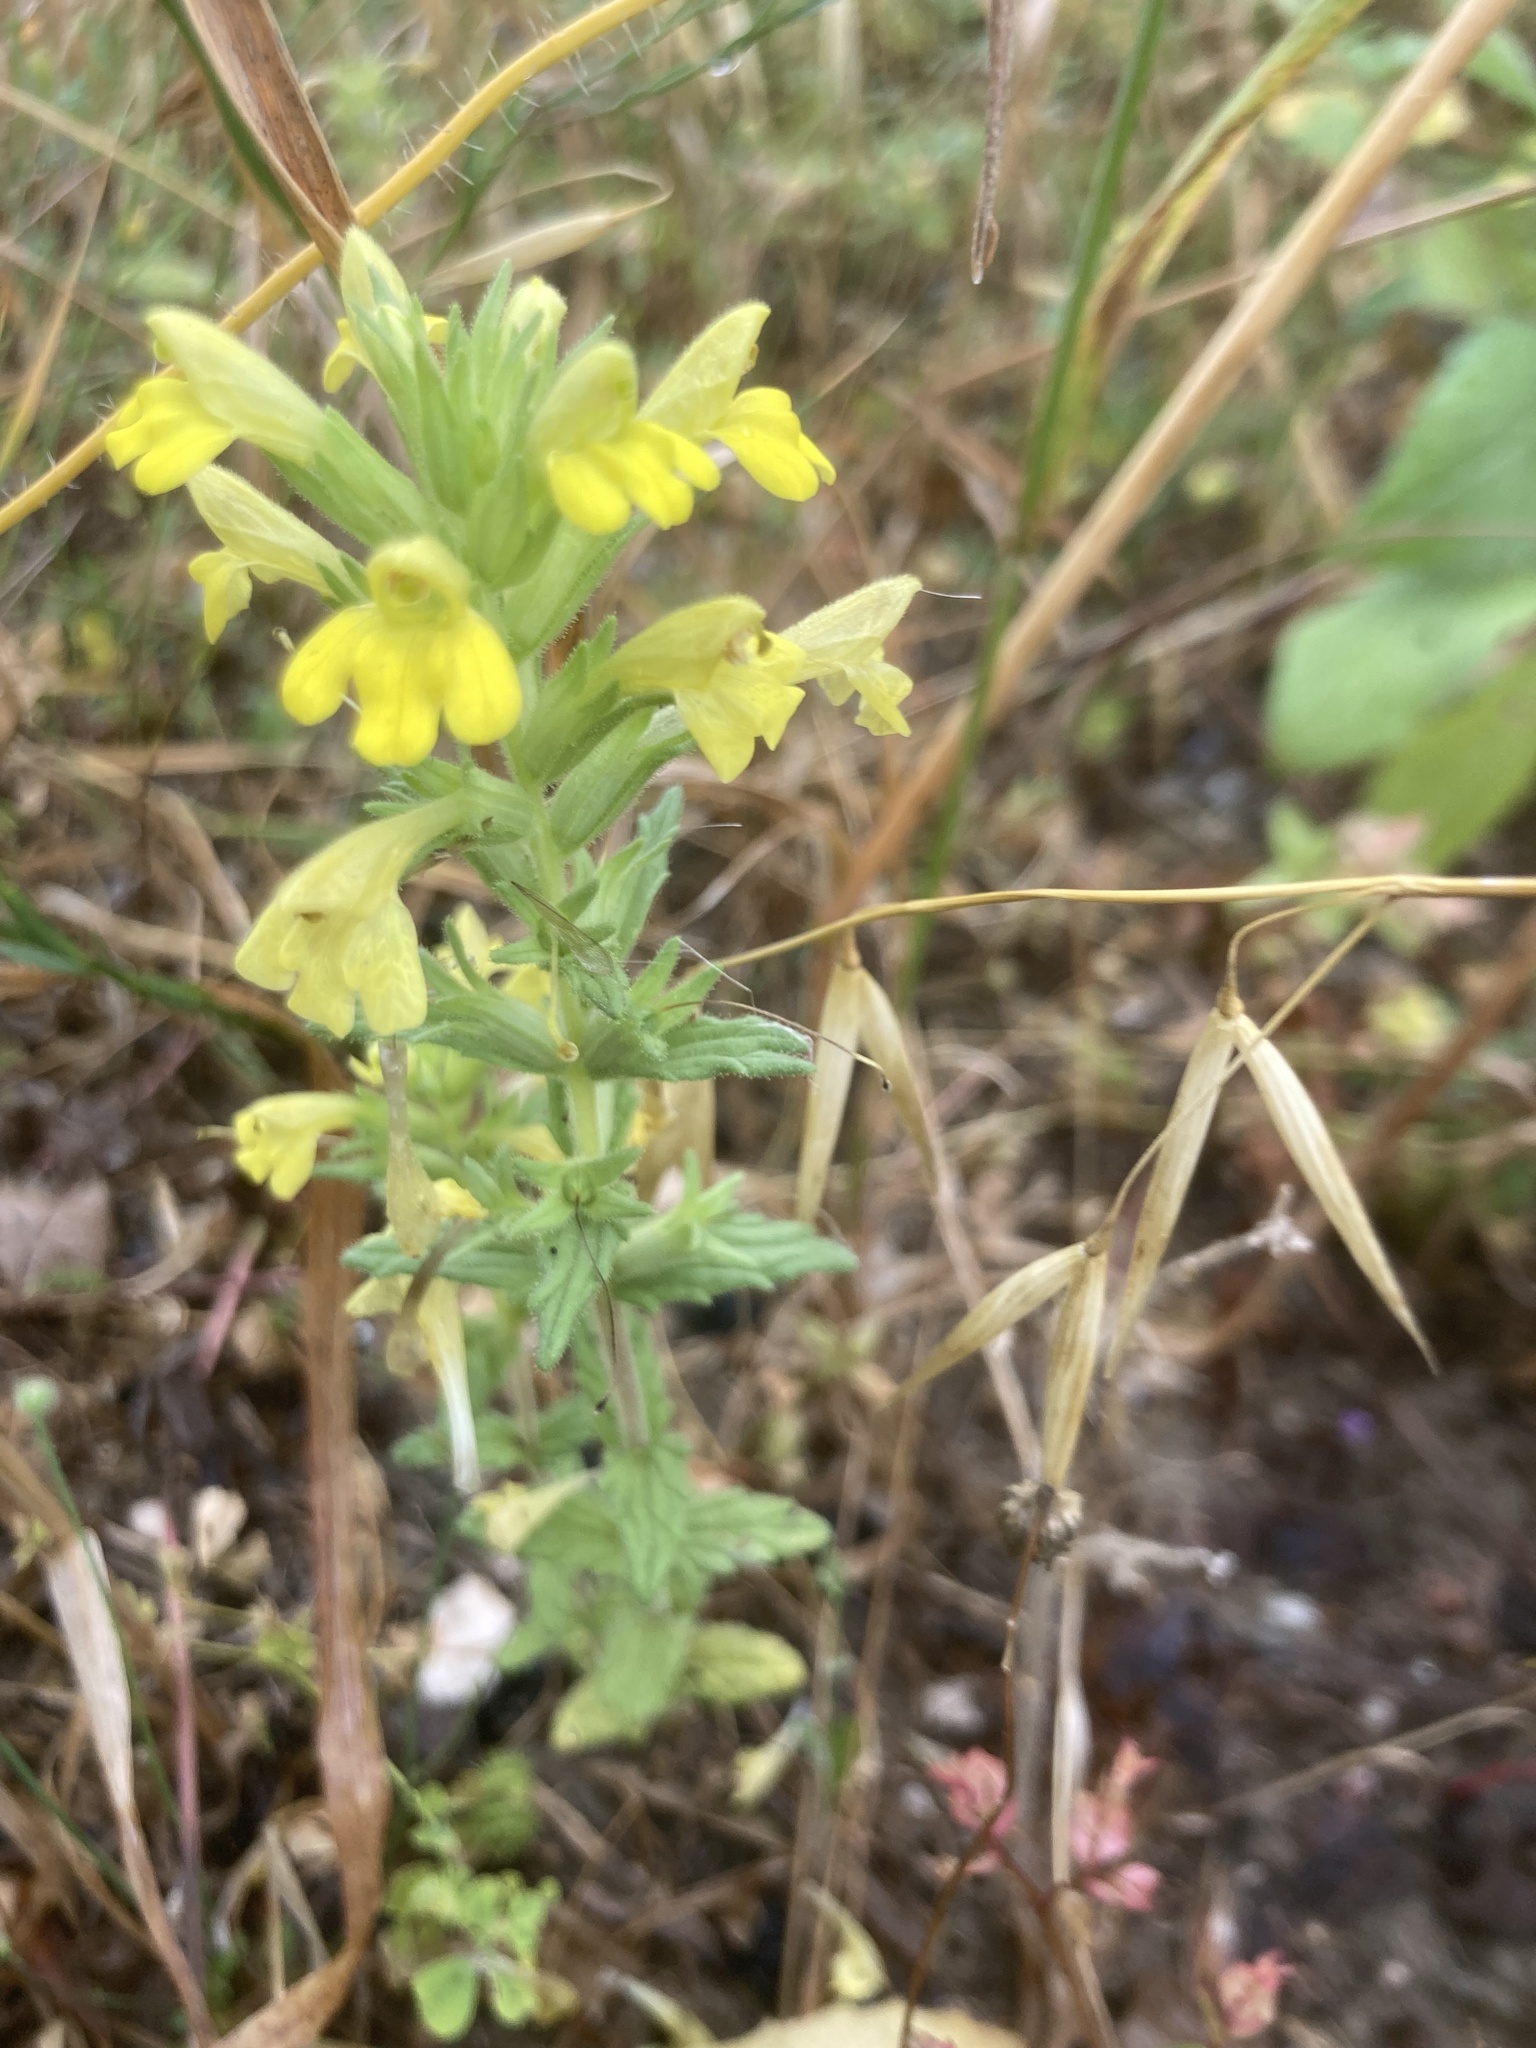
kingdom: Plantae
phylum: Tracheophyta
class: Magnoliopsida
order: Lamiales
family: Orobanchaceae
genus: Bellardia
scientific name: Bellardia viscosa
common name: Sticky parentucellia
